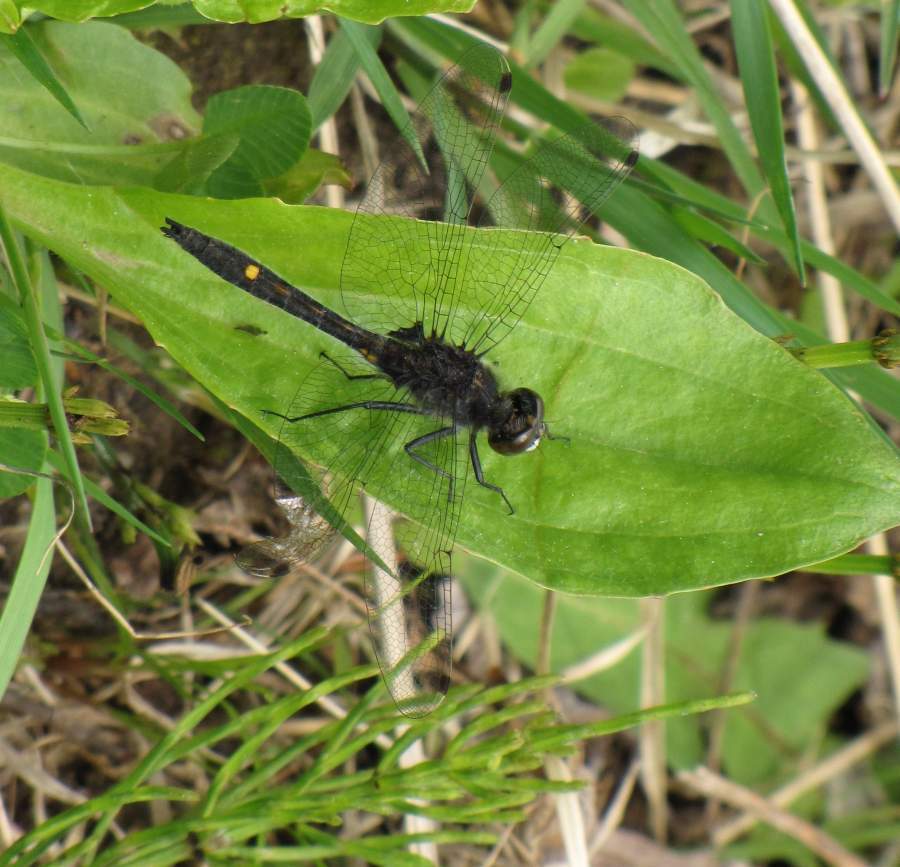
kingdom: Animalia
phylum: Arthropoda
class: Insecta
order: Odonata
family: Libellulidae
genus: Leucorrhinia
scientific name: Leucorrhinia intacta
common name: Dot-tailed whiteface
